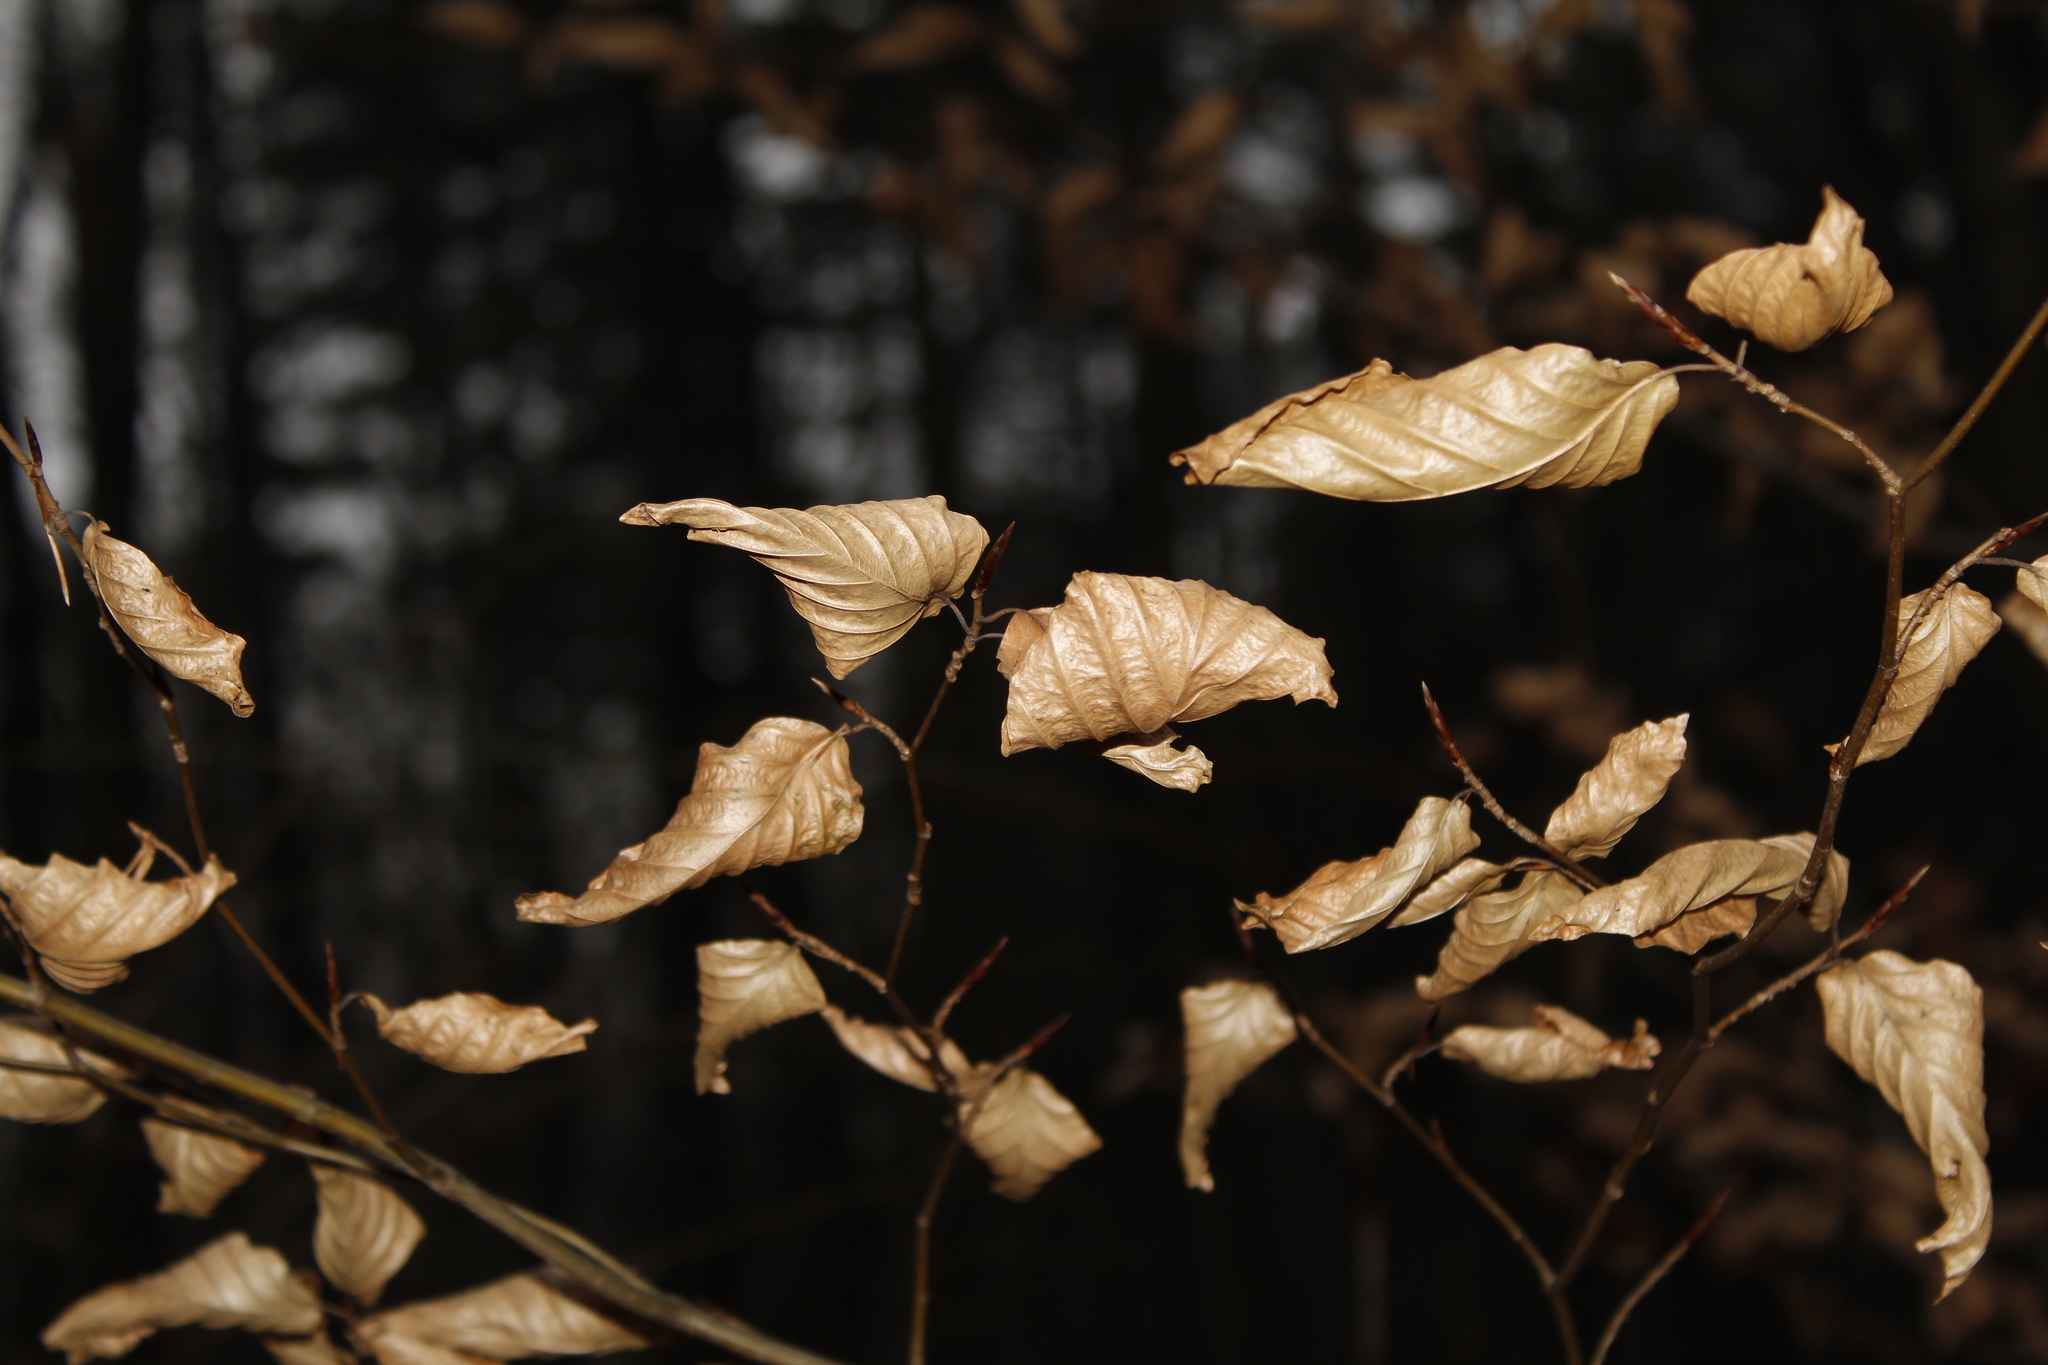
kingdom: Plantae
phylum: Tracheophyta
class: Magnoliopsida
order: Fagales
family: Fagaceae
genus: Fagus
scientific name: Fagus grandifolia
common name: American beech
